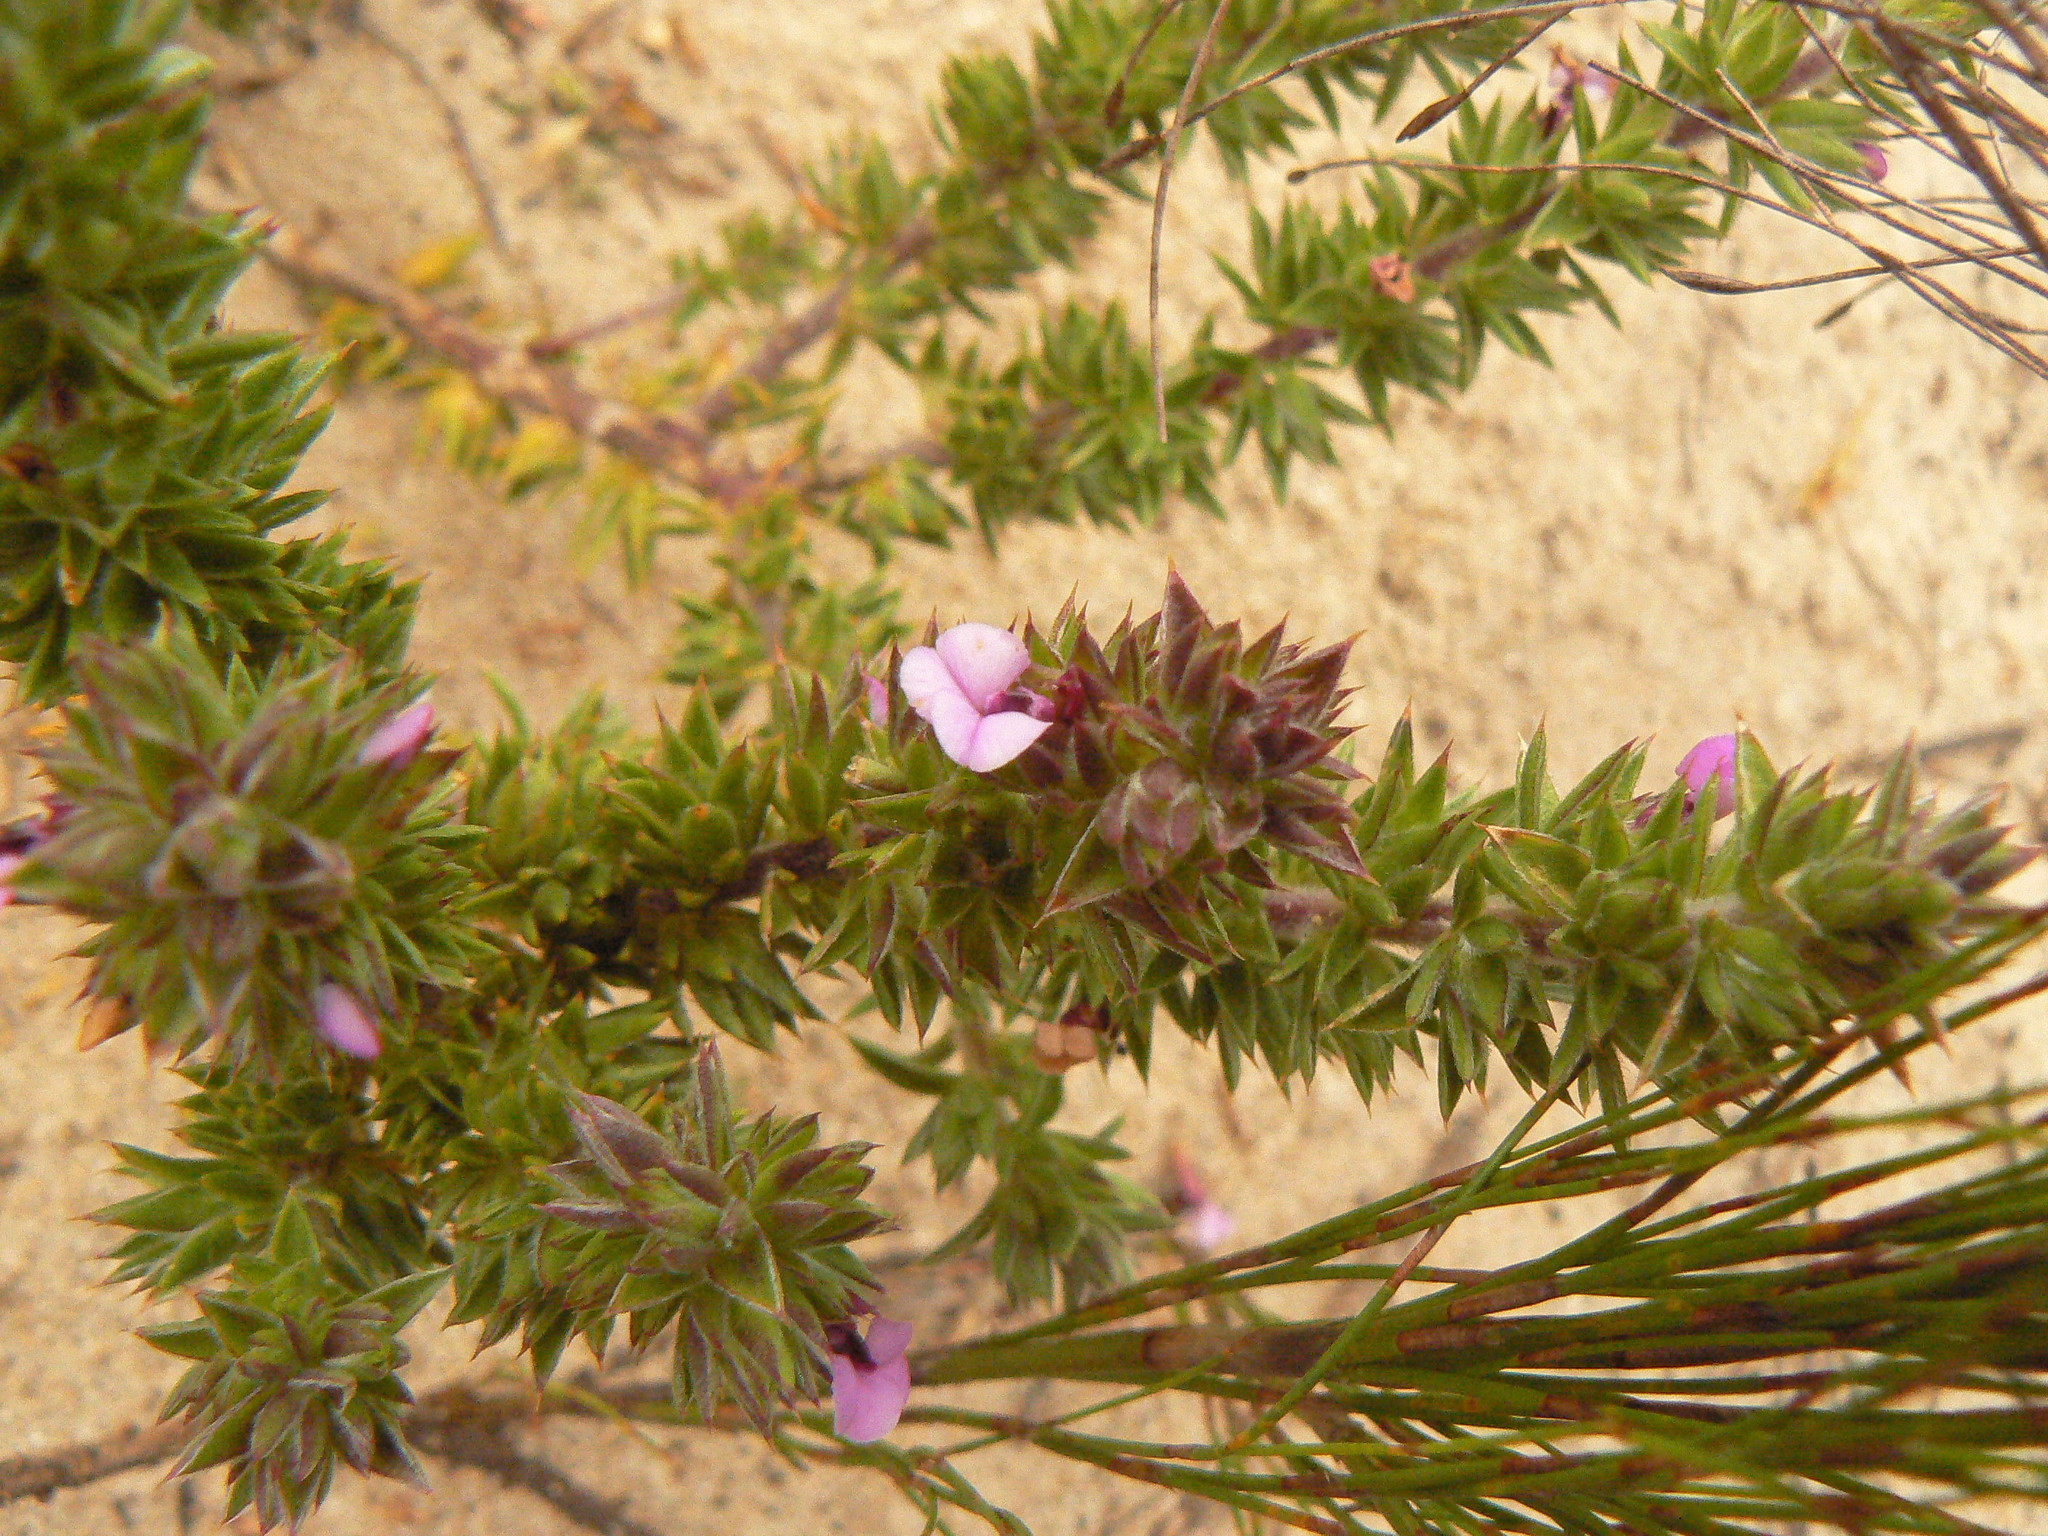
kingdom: Plantae
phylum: Tracheophyta
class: Magnoliopsida
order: Fabales
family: Polygalaceae
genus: Muraltia
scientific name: Muraltia squarrosa
